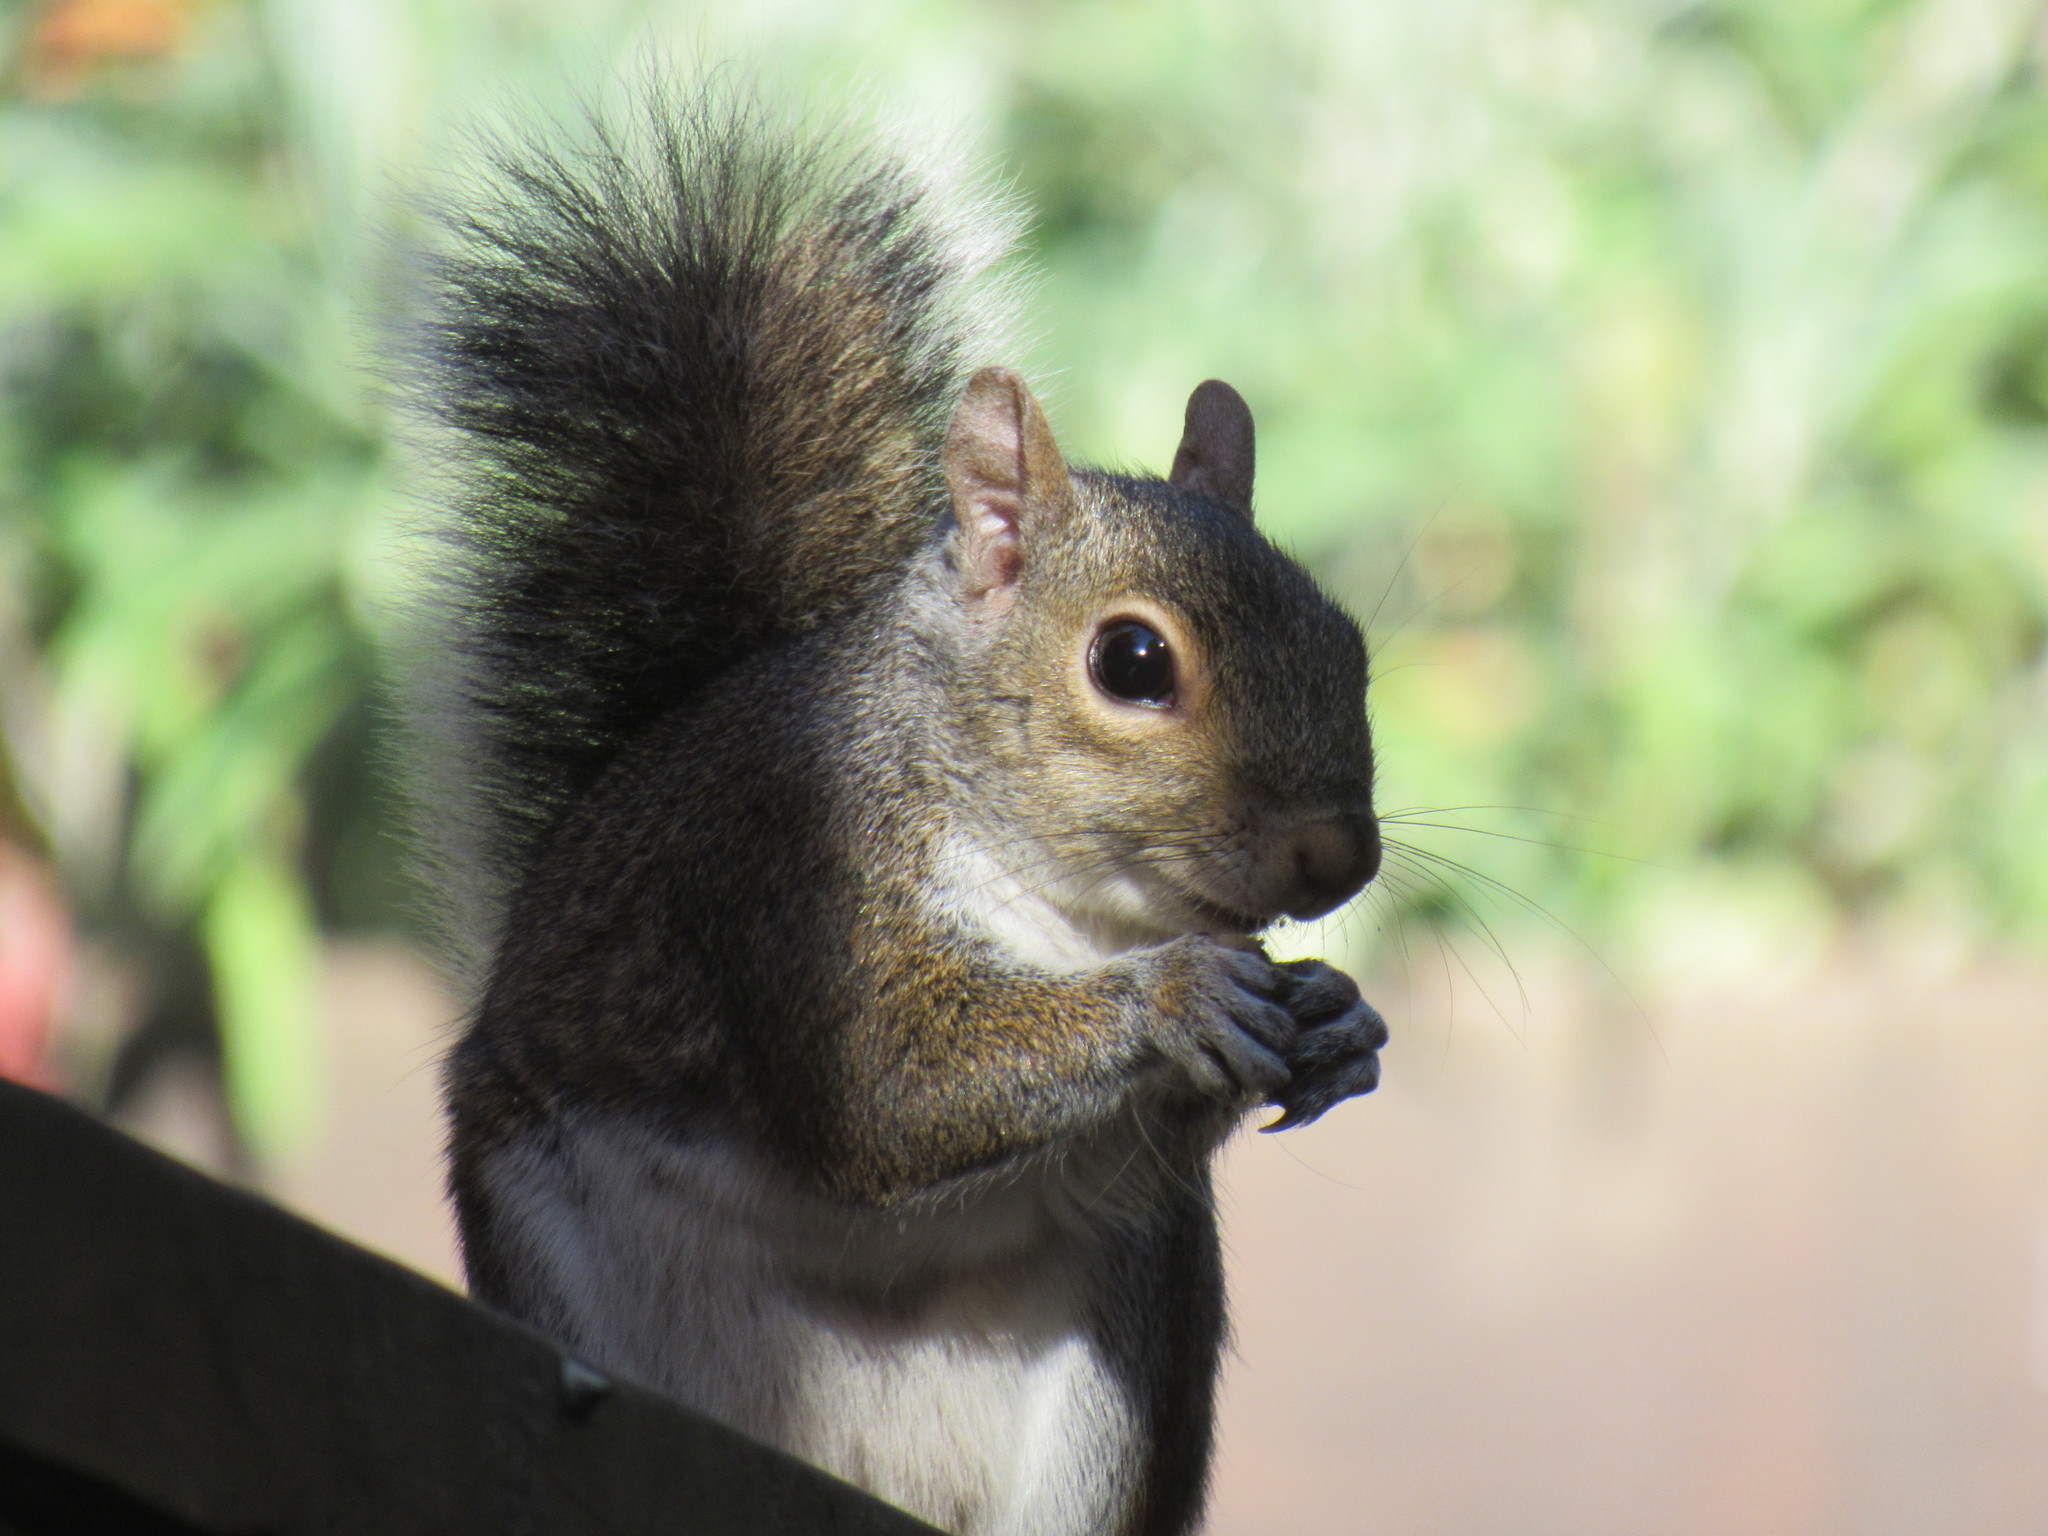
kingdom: Animalia
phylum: Chordata
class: Mammalia
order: Rodentia
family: Sciuridae
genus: Sciurus
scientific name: Sciurus carolinensis
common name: Eastern gray squirrel
